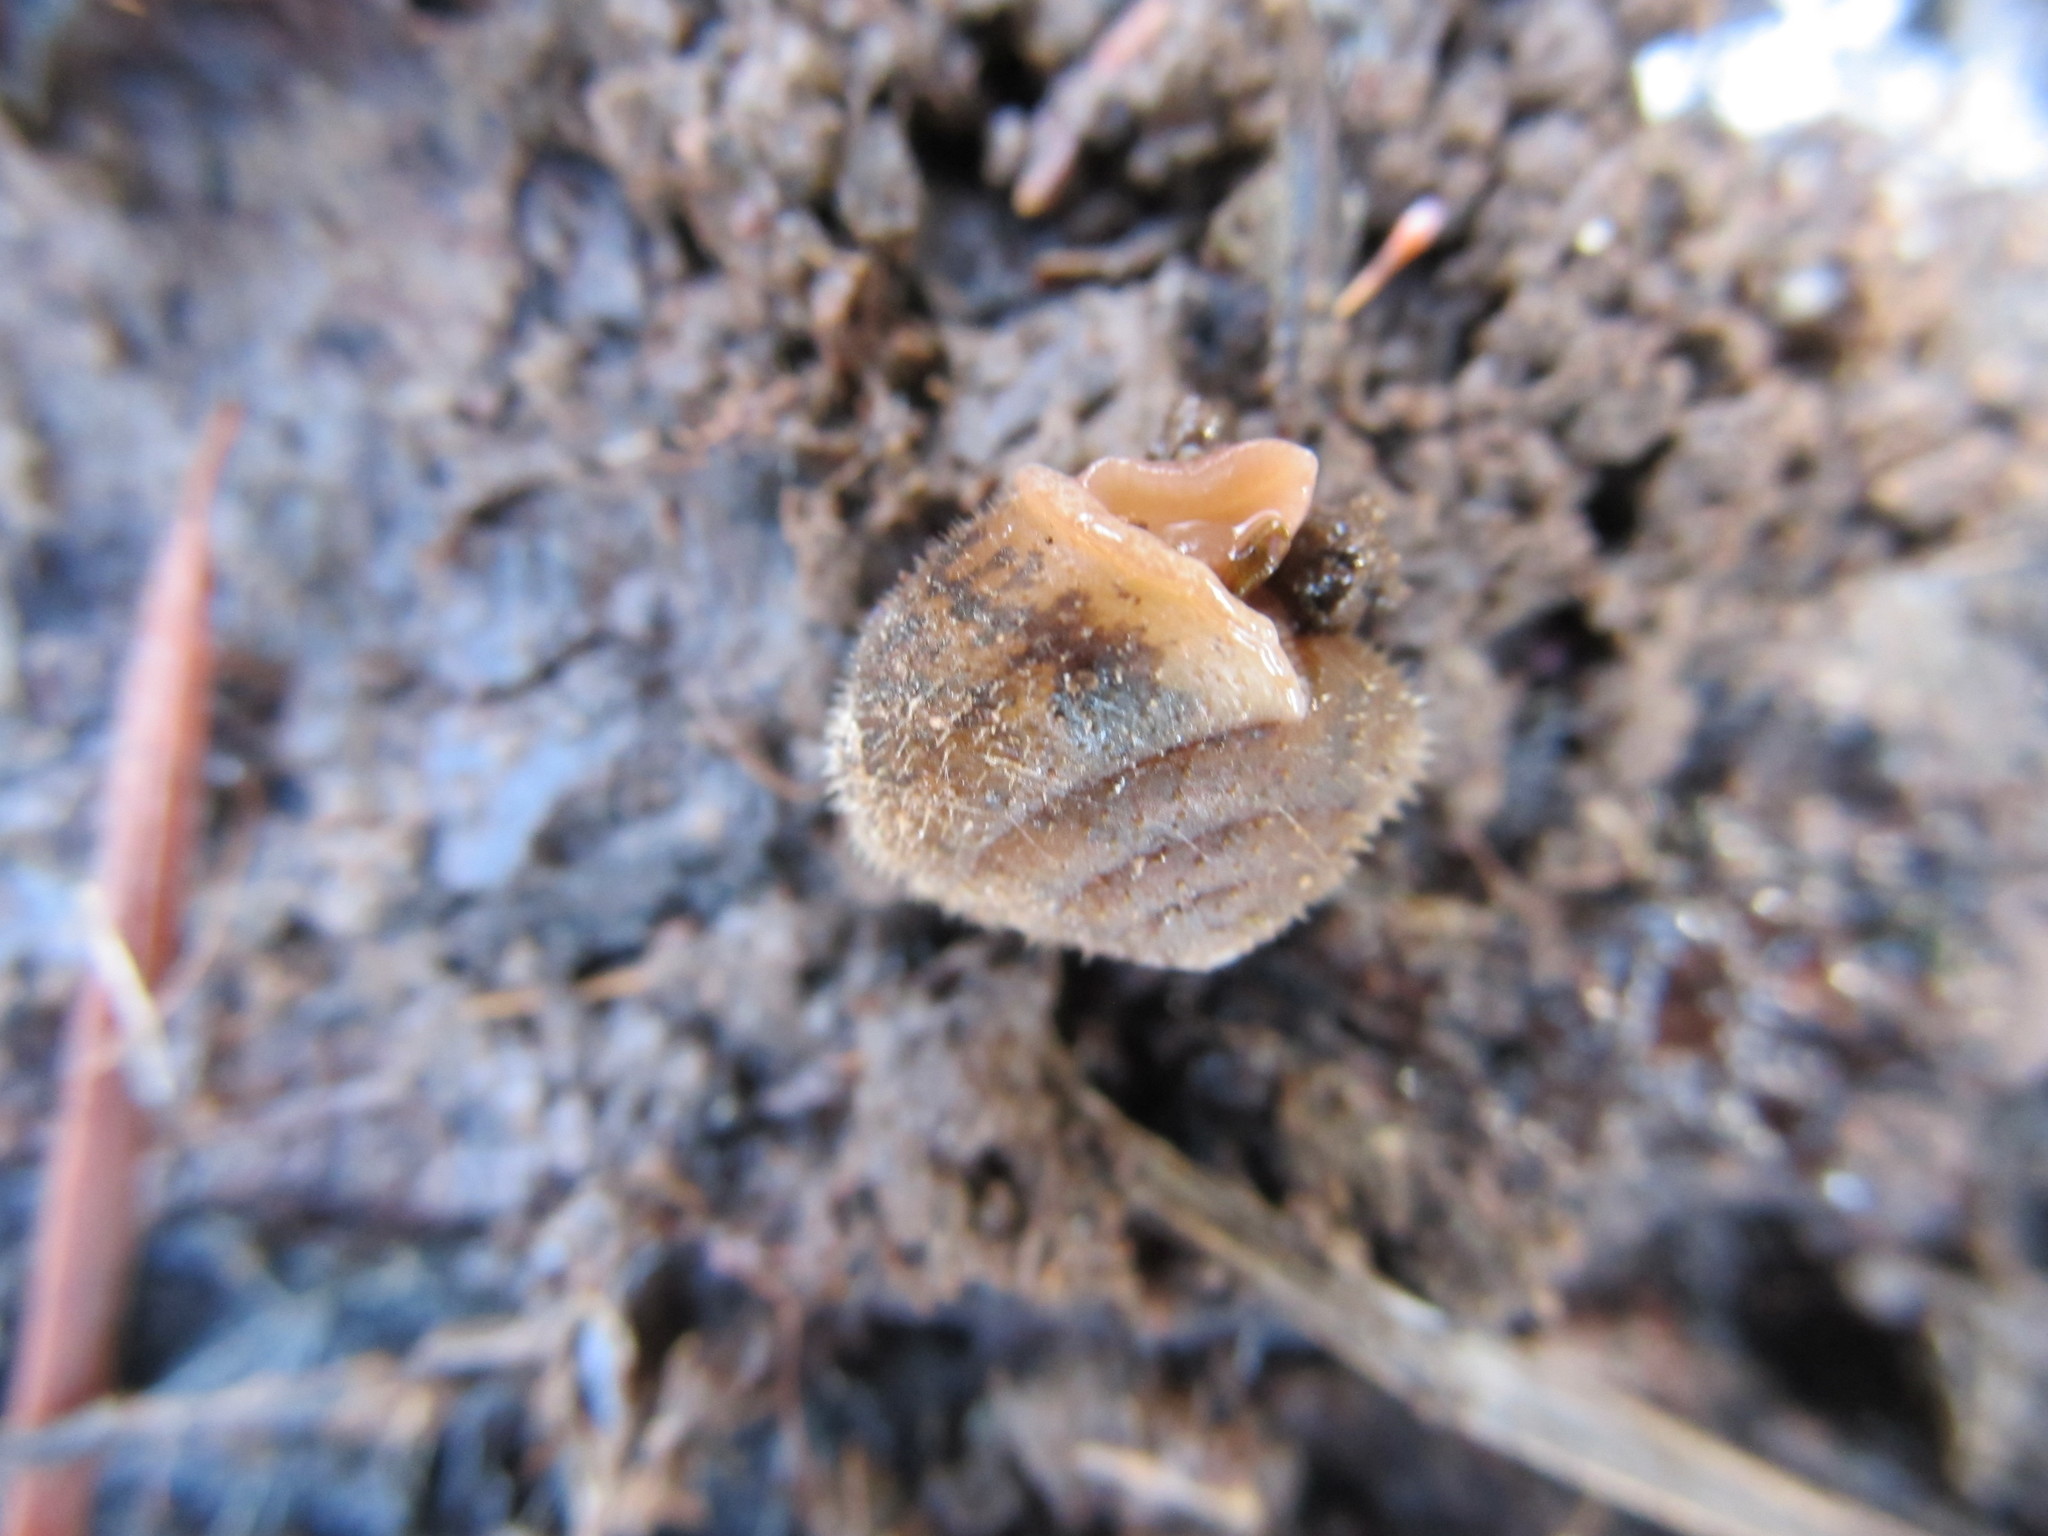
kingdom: Animalia
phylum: Mollusca
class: Gastropoda
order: Stylommatophora
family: Polygyridae
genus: Vespericola
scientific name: Vespericola columbianus
